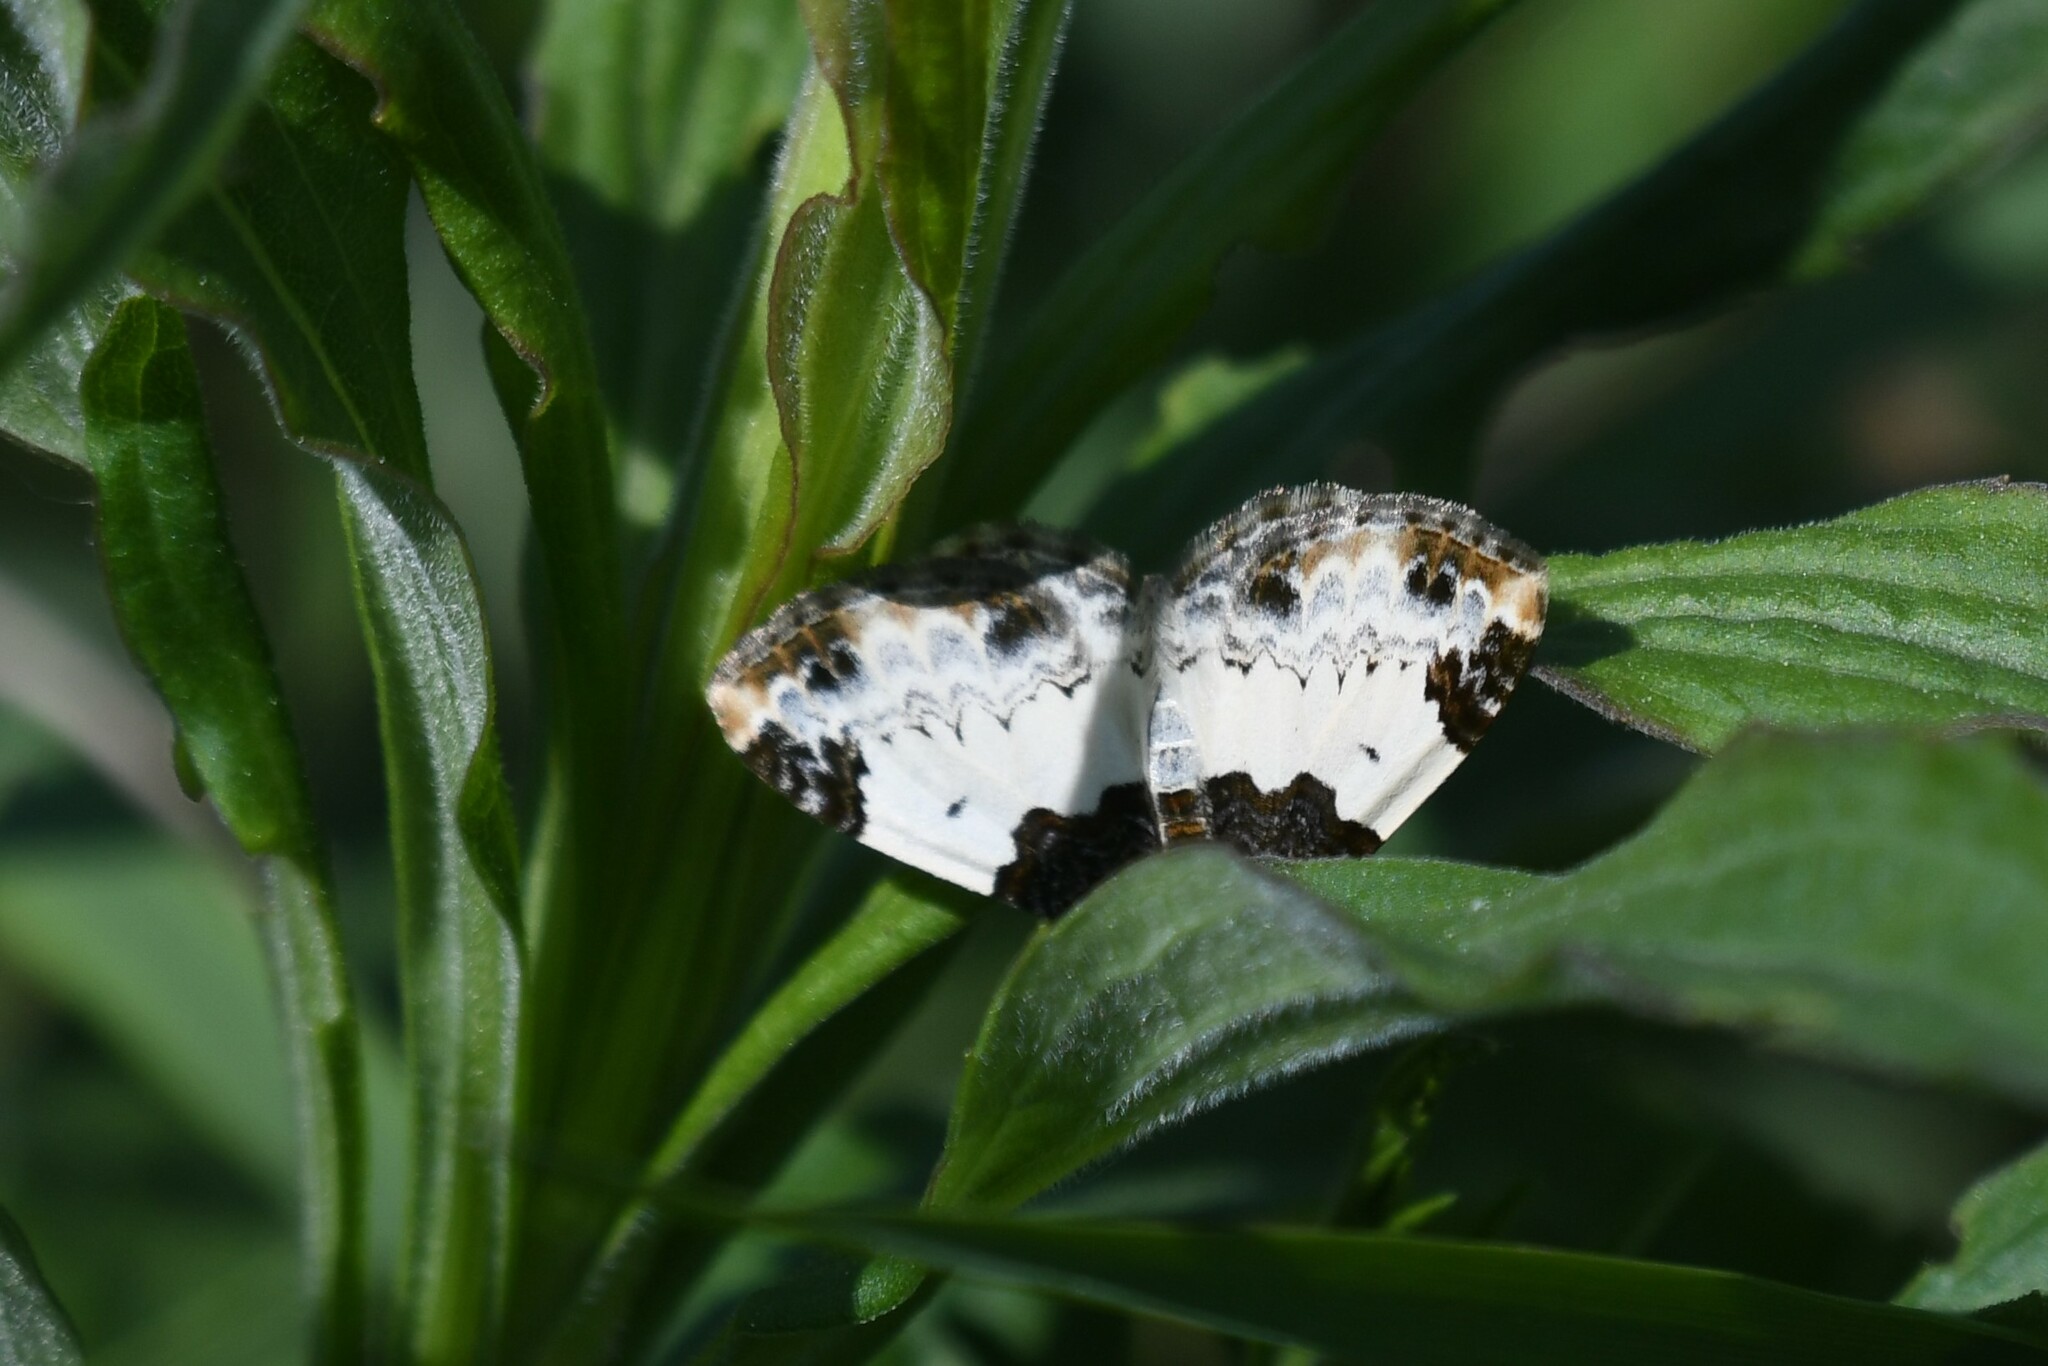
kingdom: Animalia
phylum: Arthropoda
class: Insecta
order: Lepidoptera
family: Geometridae
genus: Mesoleuca
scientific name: Mesoleuca ruficillata
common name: White-ribboned carpet moth
